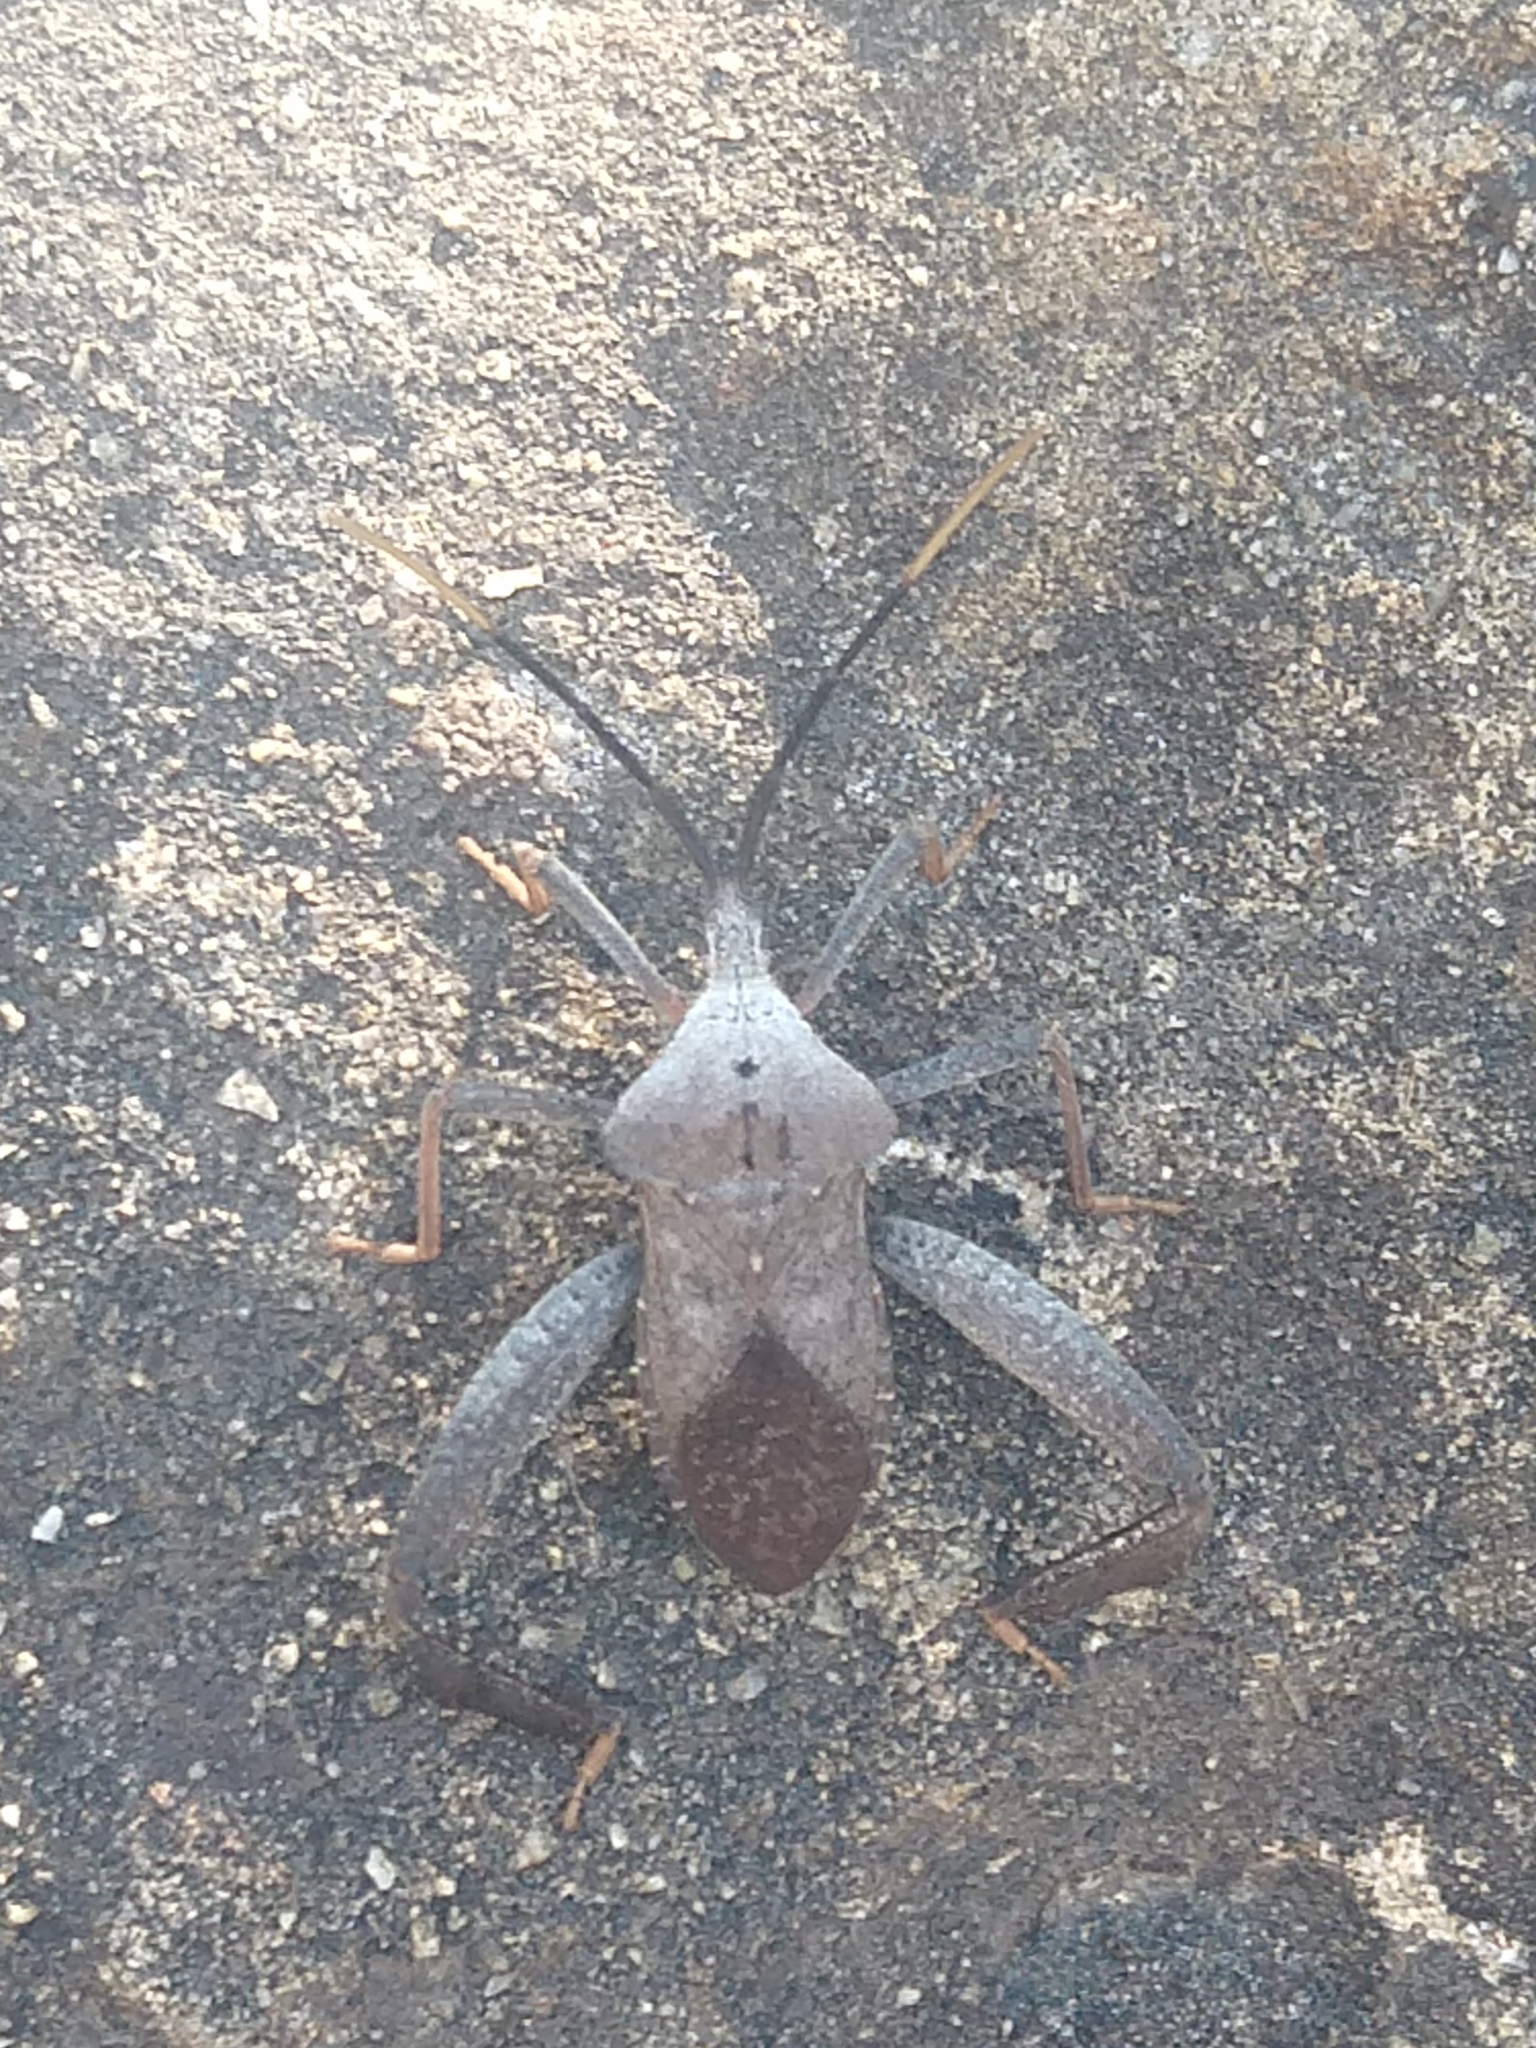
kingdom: Animalia
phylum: Arthropoda
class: Insecta
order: Hemiptera
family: Coreidae
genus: Acanthocephala
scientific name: Acanthocephala alata
